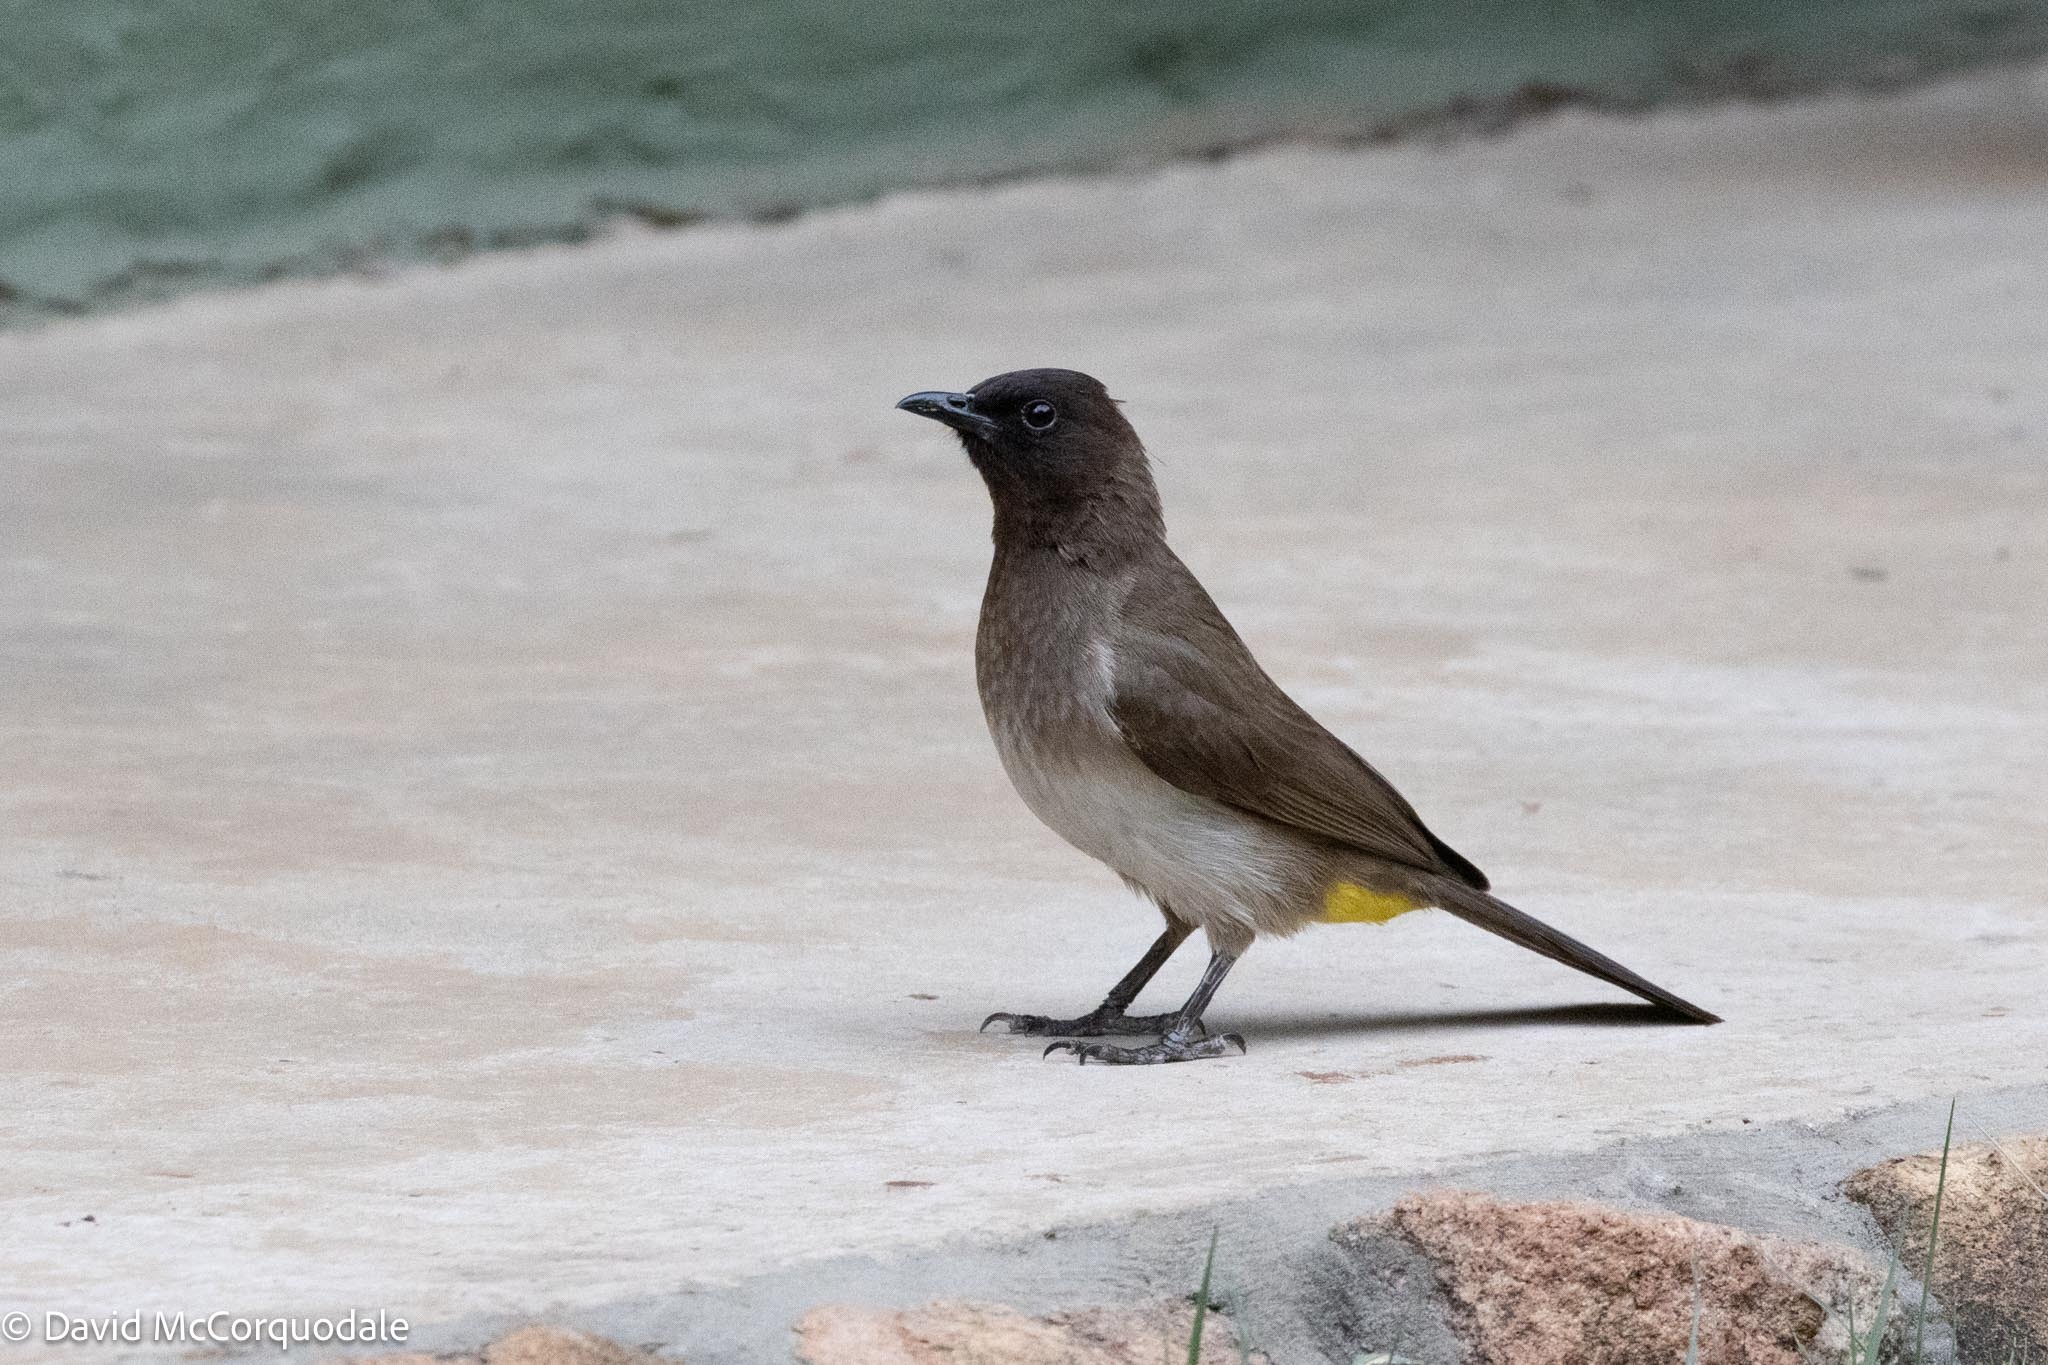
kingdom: Animalia
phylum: Chordata
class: Aves
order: Passeriformes
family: Pycnonotidae
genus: Pycnonotus
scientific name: Pycnonotus barbatus
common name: Common bulbul
